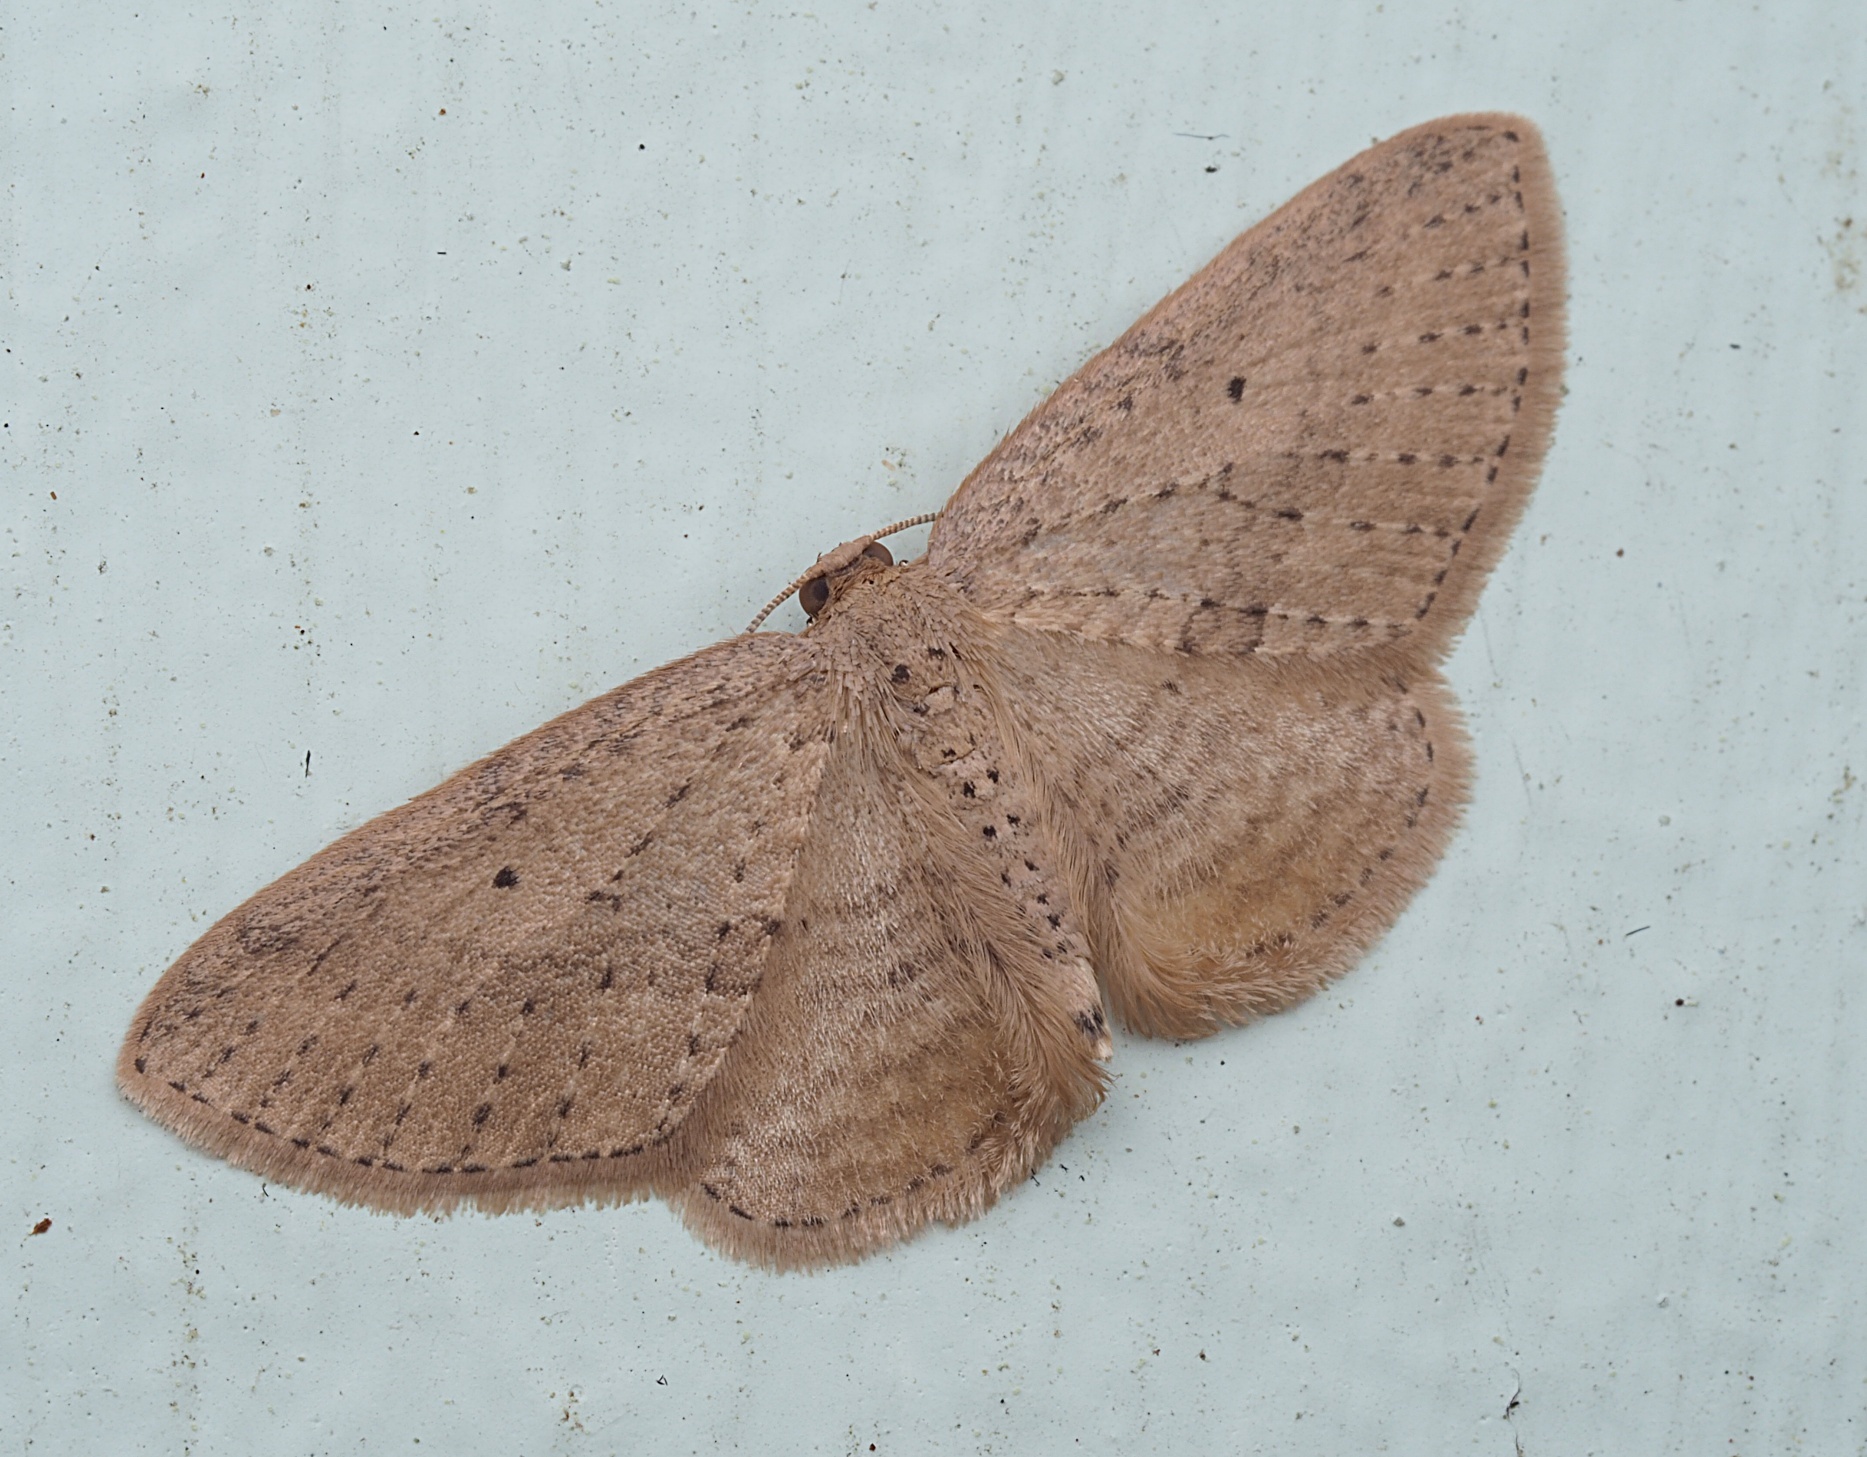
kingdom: Animalia
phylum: Arthropoda
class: Insecta
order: Lepidoptera
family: Geometridae
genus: Poecilasthena
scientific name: Poecilasthena schistaria
